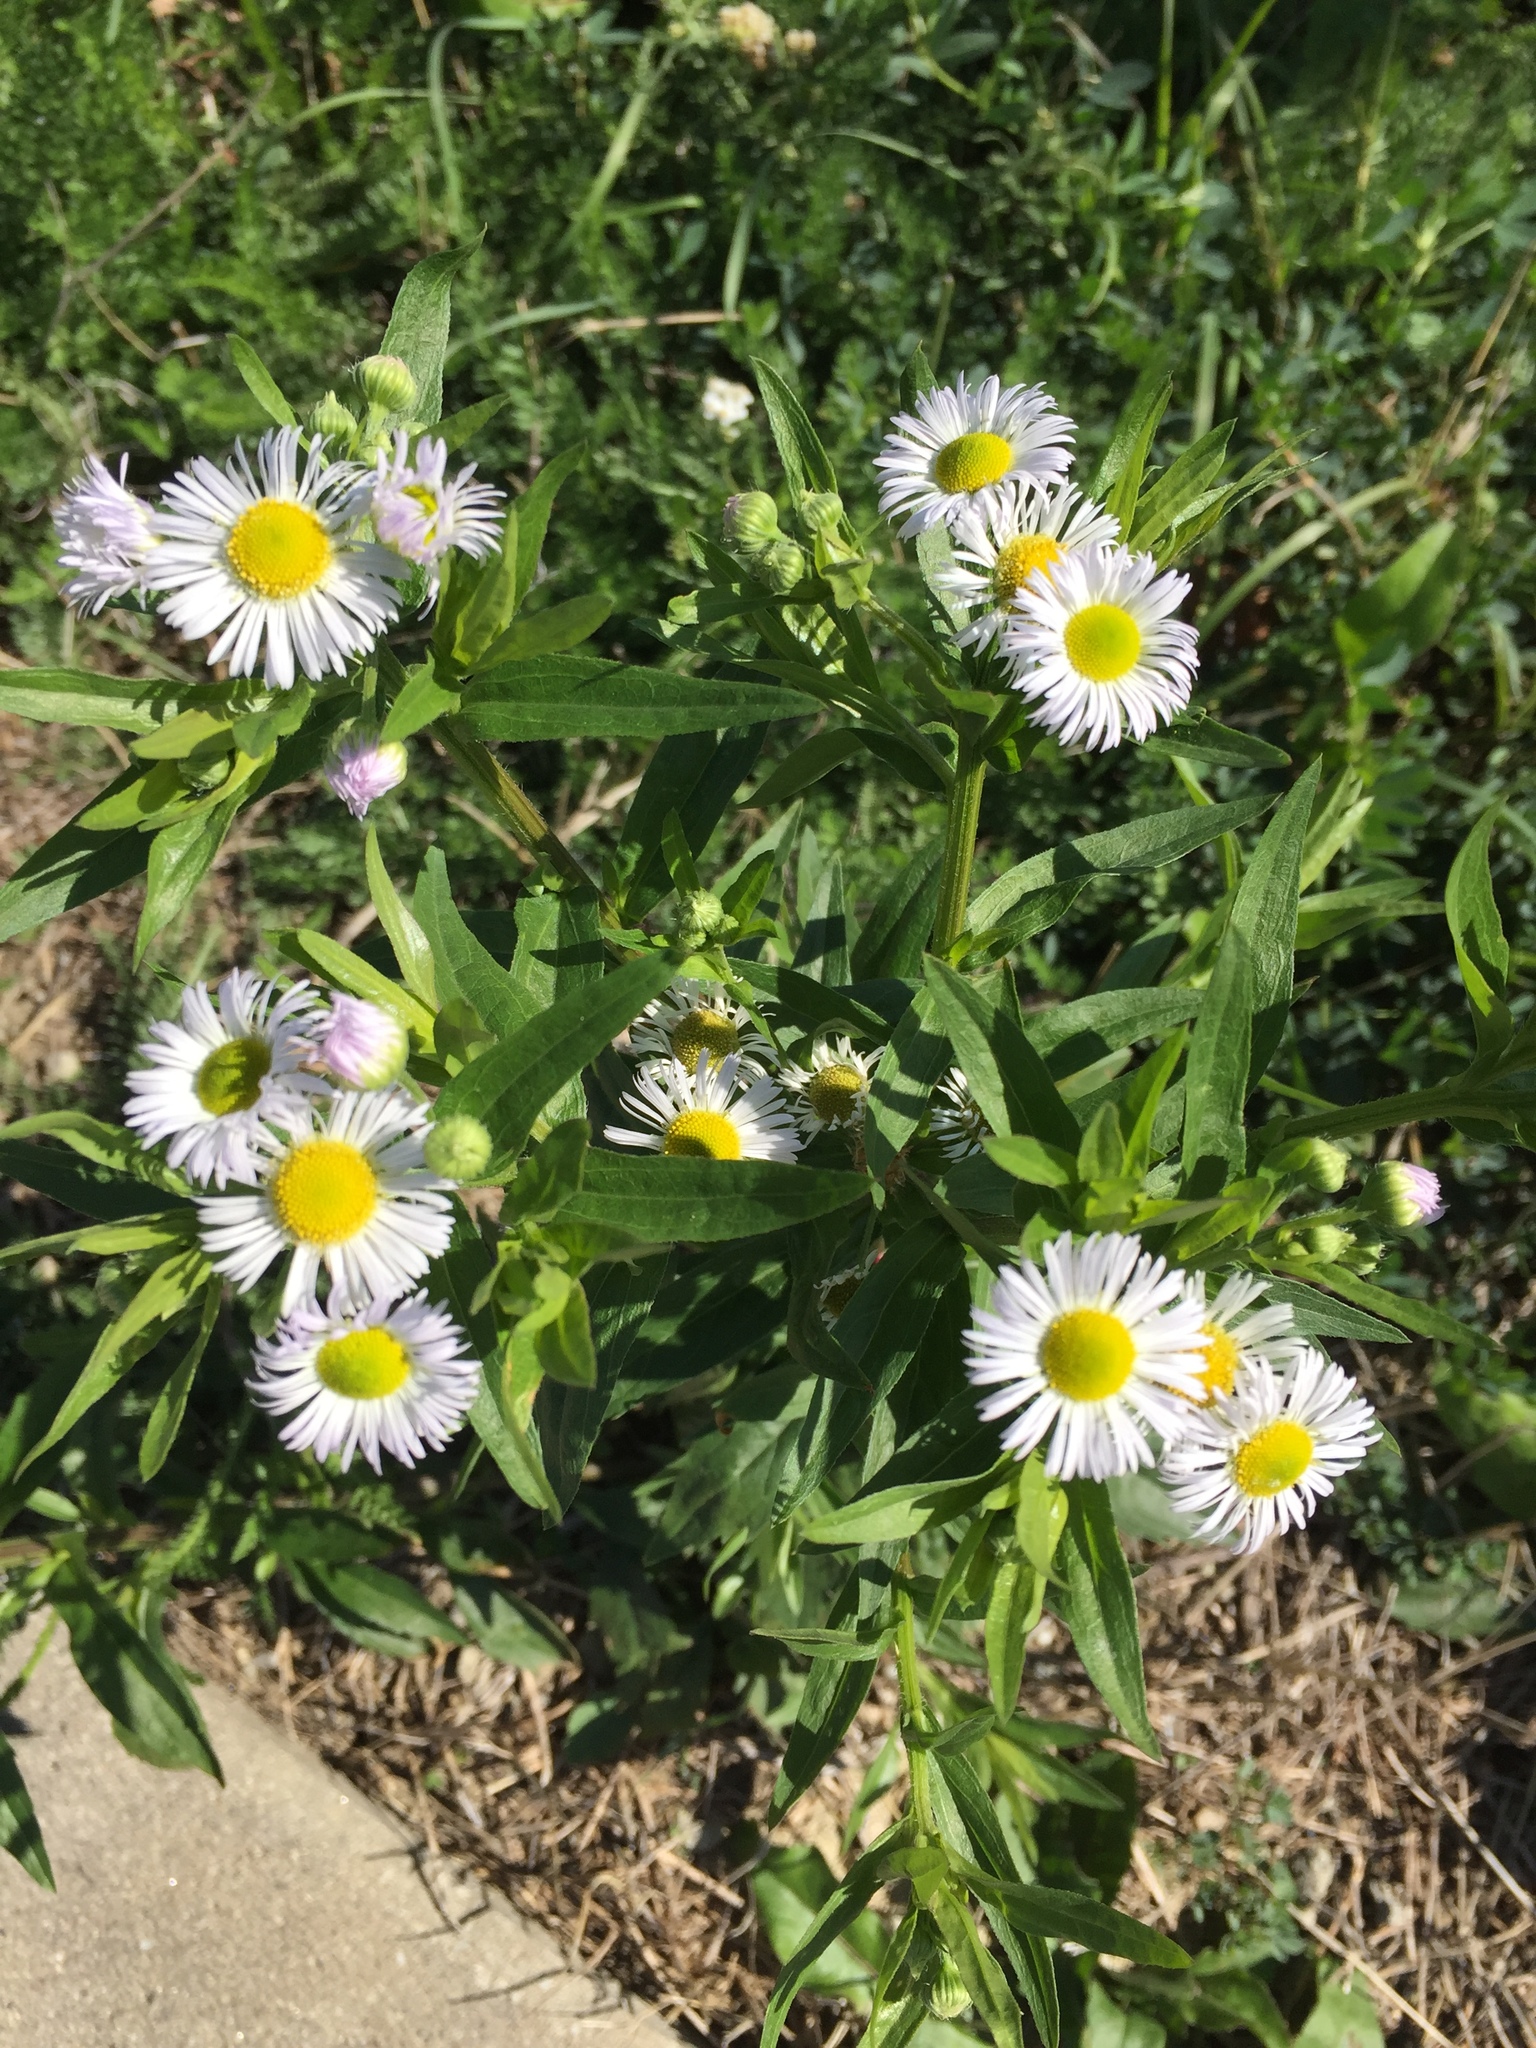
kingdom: Plantae
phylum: Tracheophyta
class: Magnoliopsida
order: Asterales
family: Asteraceae
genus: Erigeron
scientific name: Erigeron annuus
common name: Tall fleabane
